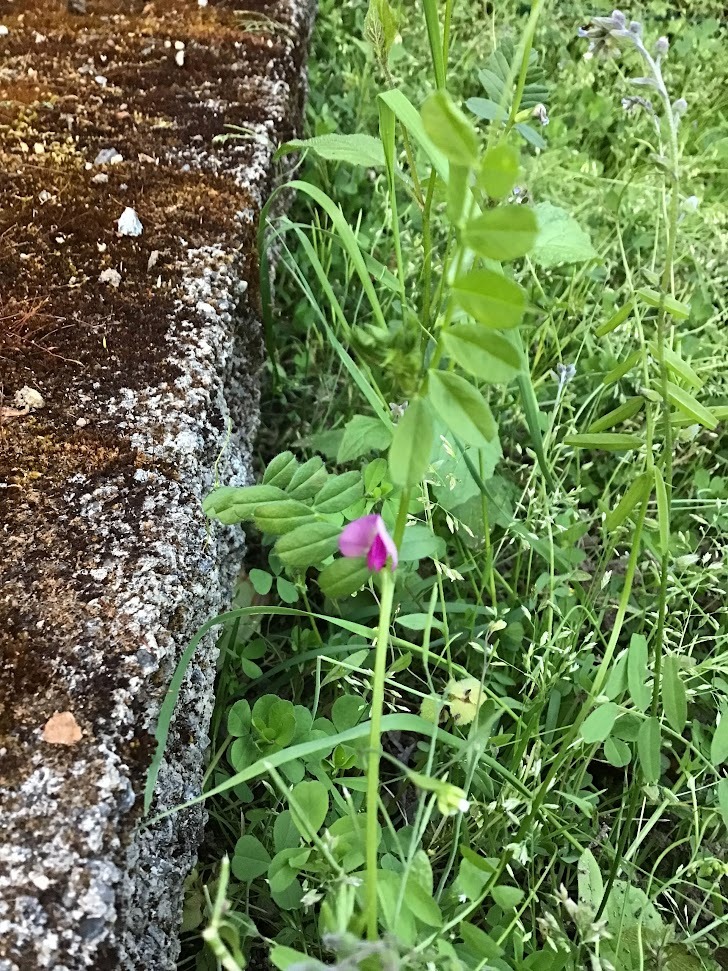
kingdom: Plantae
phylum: Tracheophyta
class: Magnoliopsida
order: Fabales
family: Fabaceae
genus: Vicia
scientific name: Vicia sativa
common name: Garden vetch
